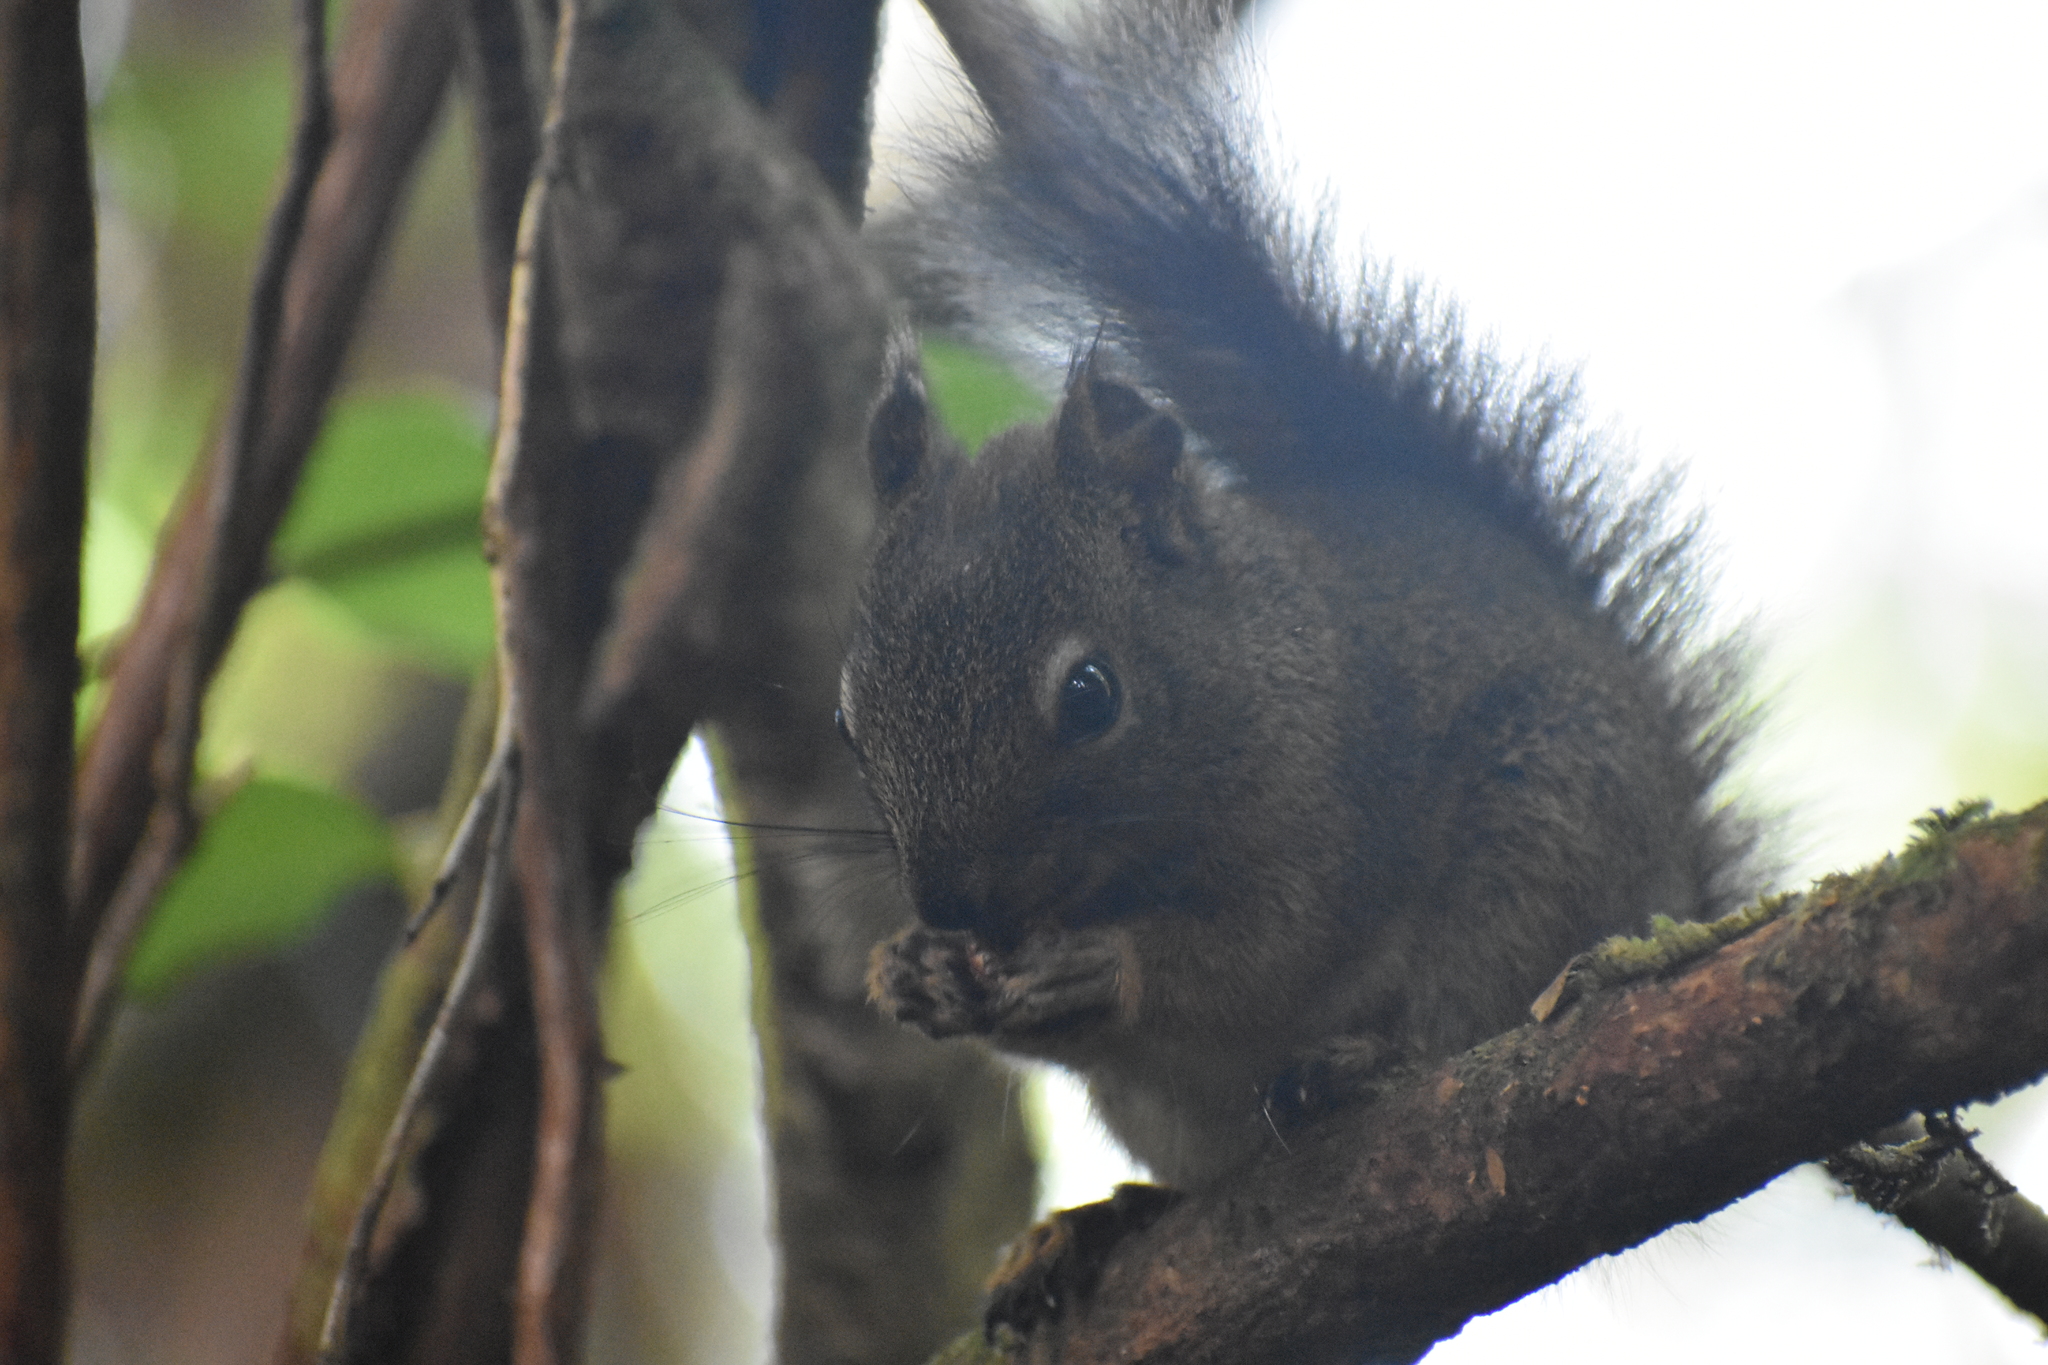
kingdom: Animalia
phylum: Chordata
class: Mammalia
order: Rodentia
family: Sciuridae
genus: Tamiasciurus
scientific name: Tamiasciurus hudsonicus
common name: Red squirrel
